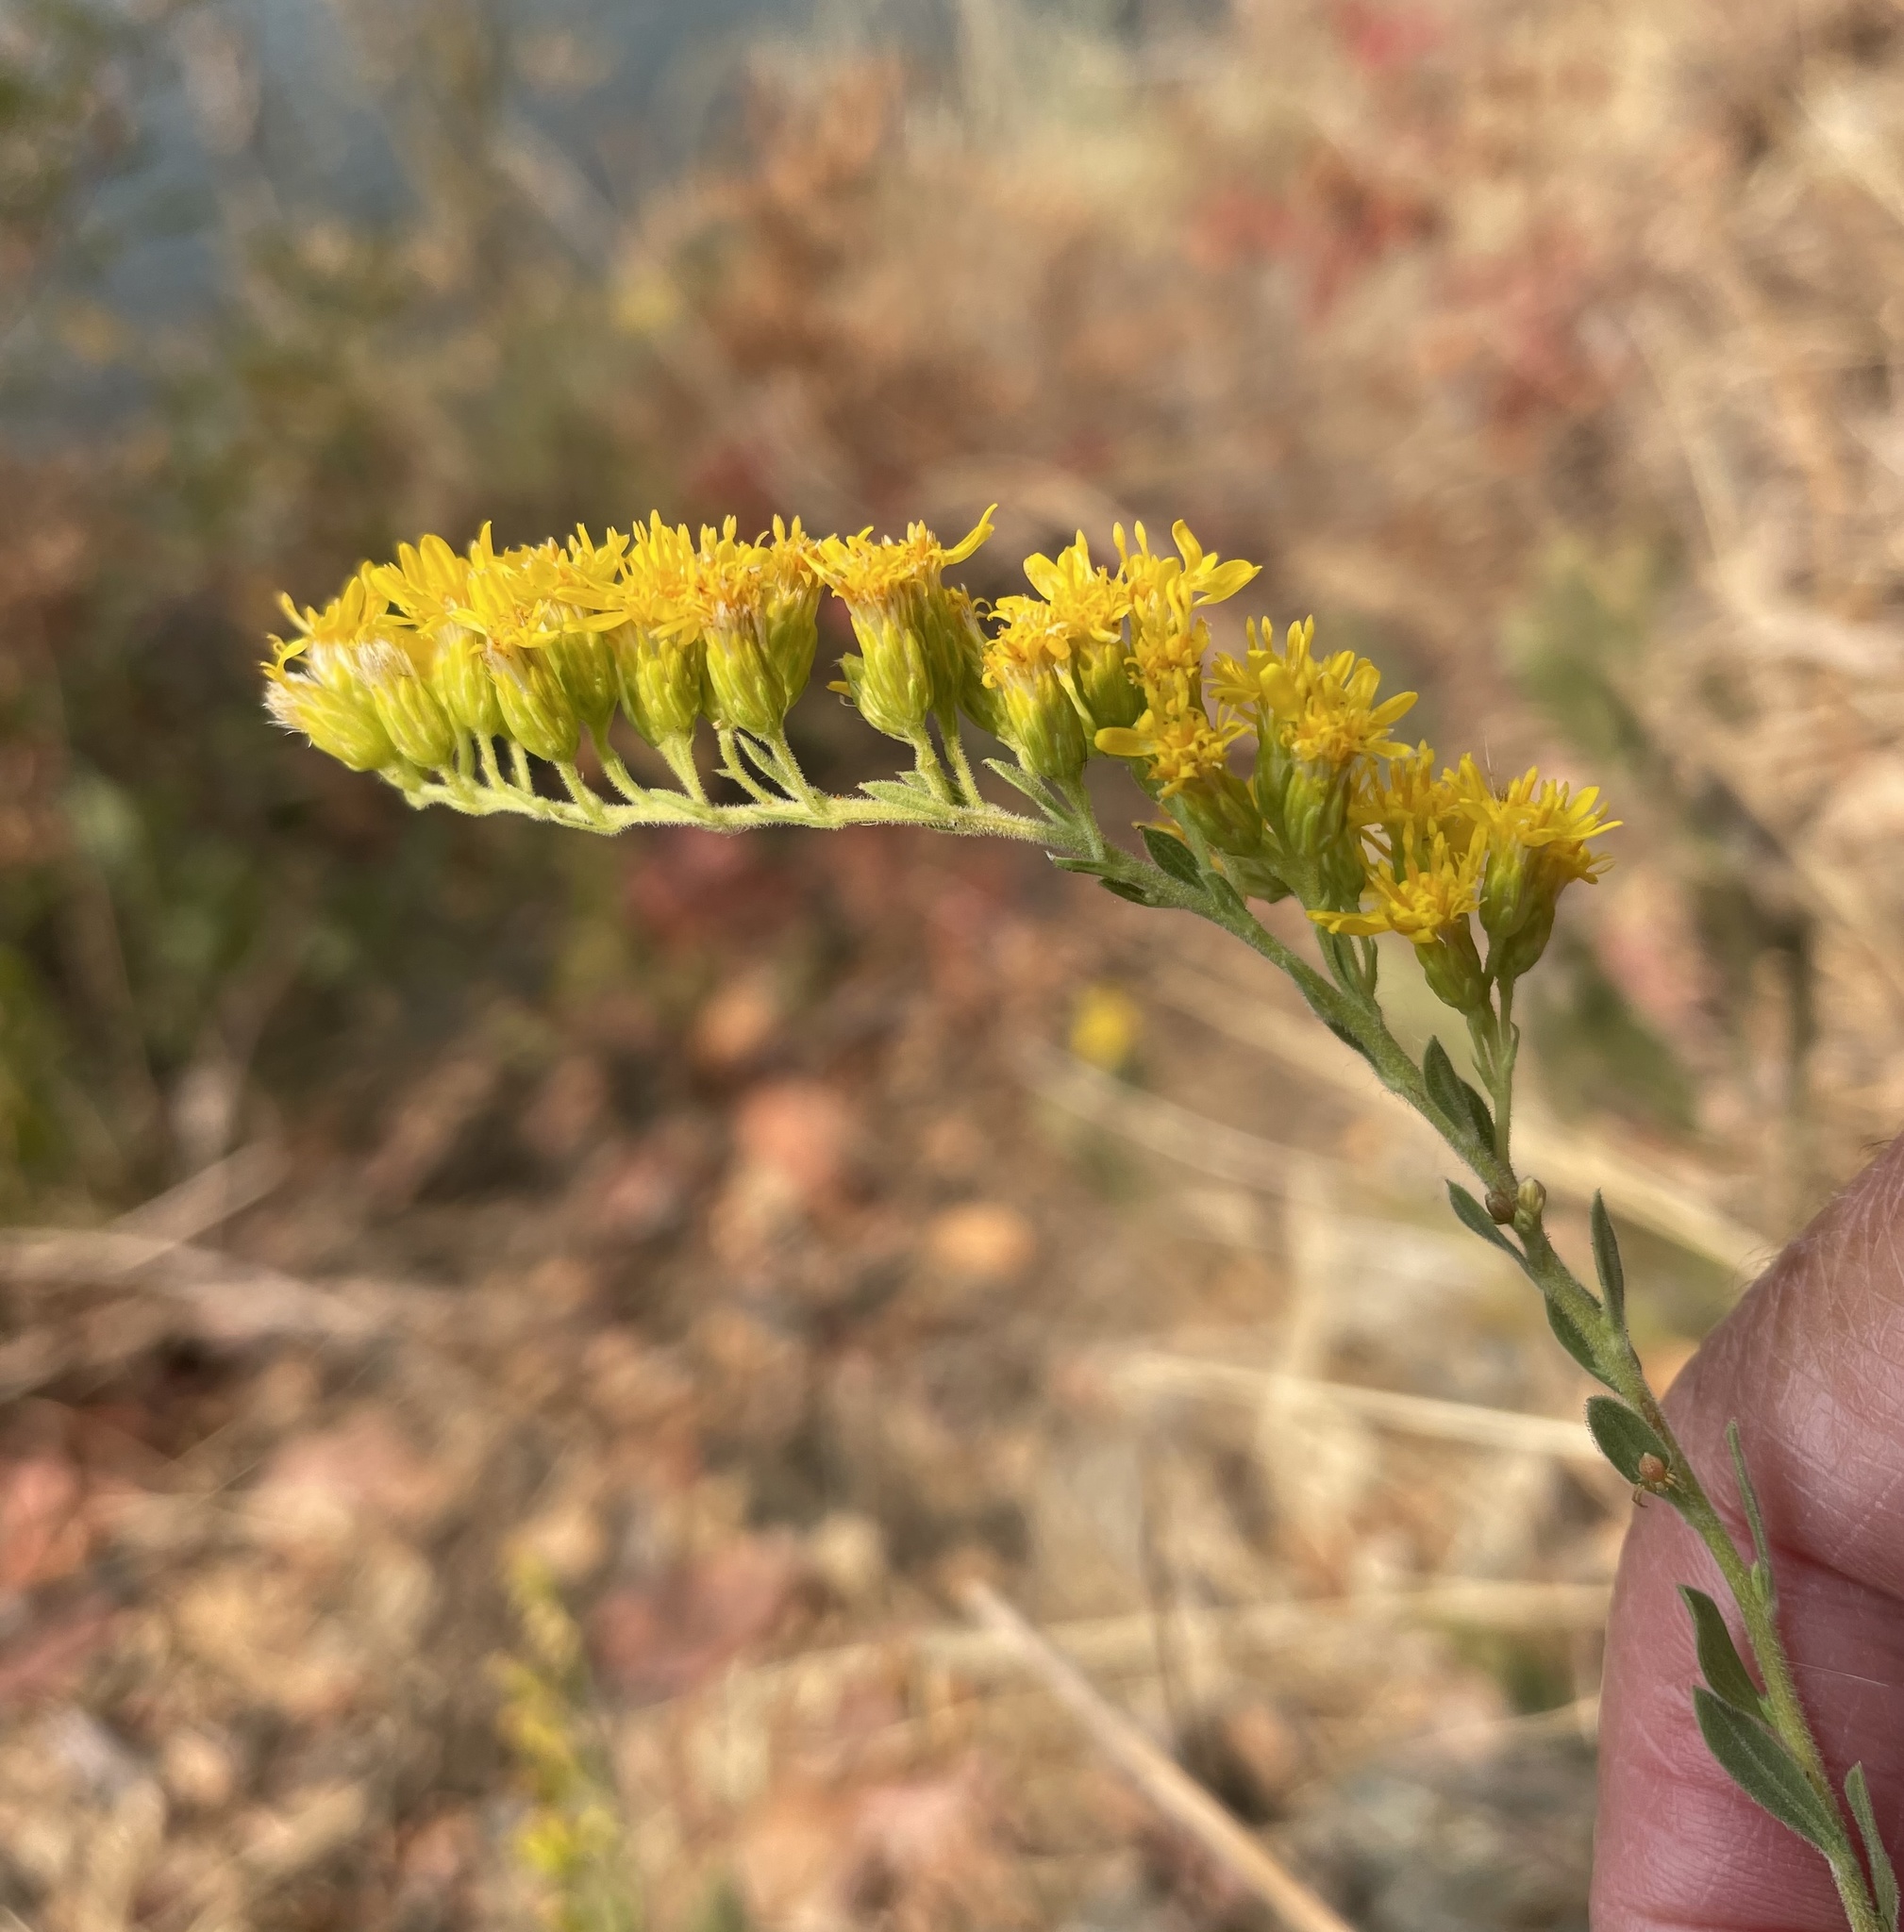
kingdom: Plantae
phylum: Tracheophyta
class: Magnoliopsida
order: Asterales
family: Asteraceae
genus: Solidago
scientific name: Solidago velutina
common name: Three-nerve goldenrod
